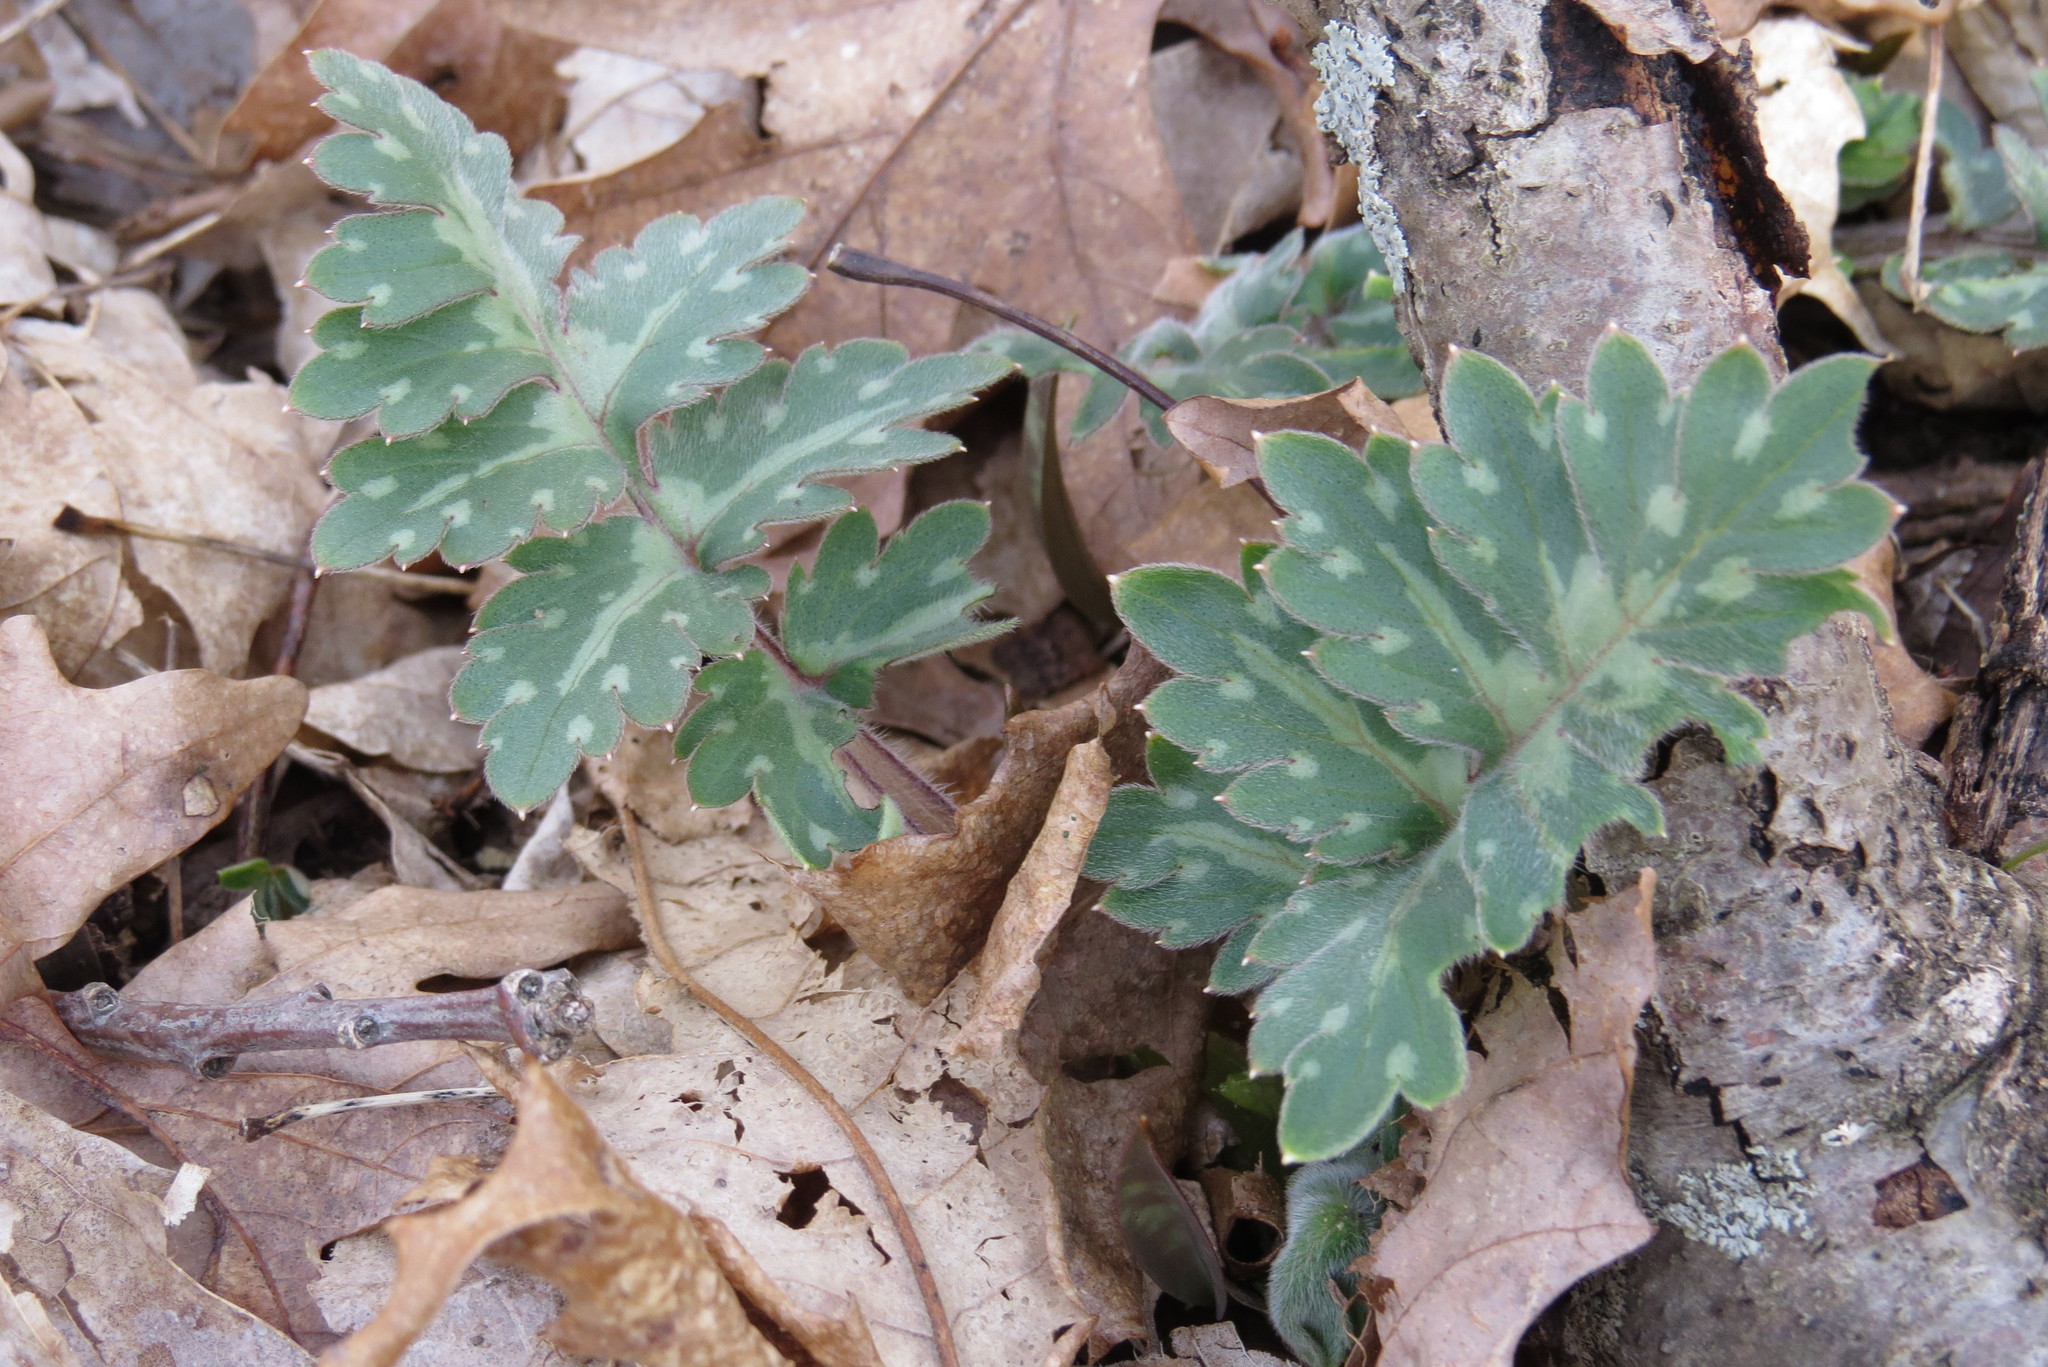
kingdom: Plantae
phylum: Tracheophyta
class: Magnoliopsida
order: Boraginales
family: Hydrophyllaceae
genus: Hydrophyllum
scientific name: Hydrophyllum macrophyllum
